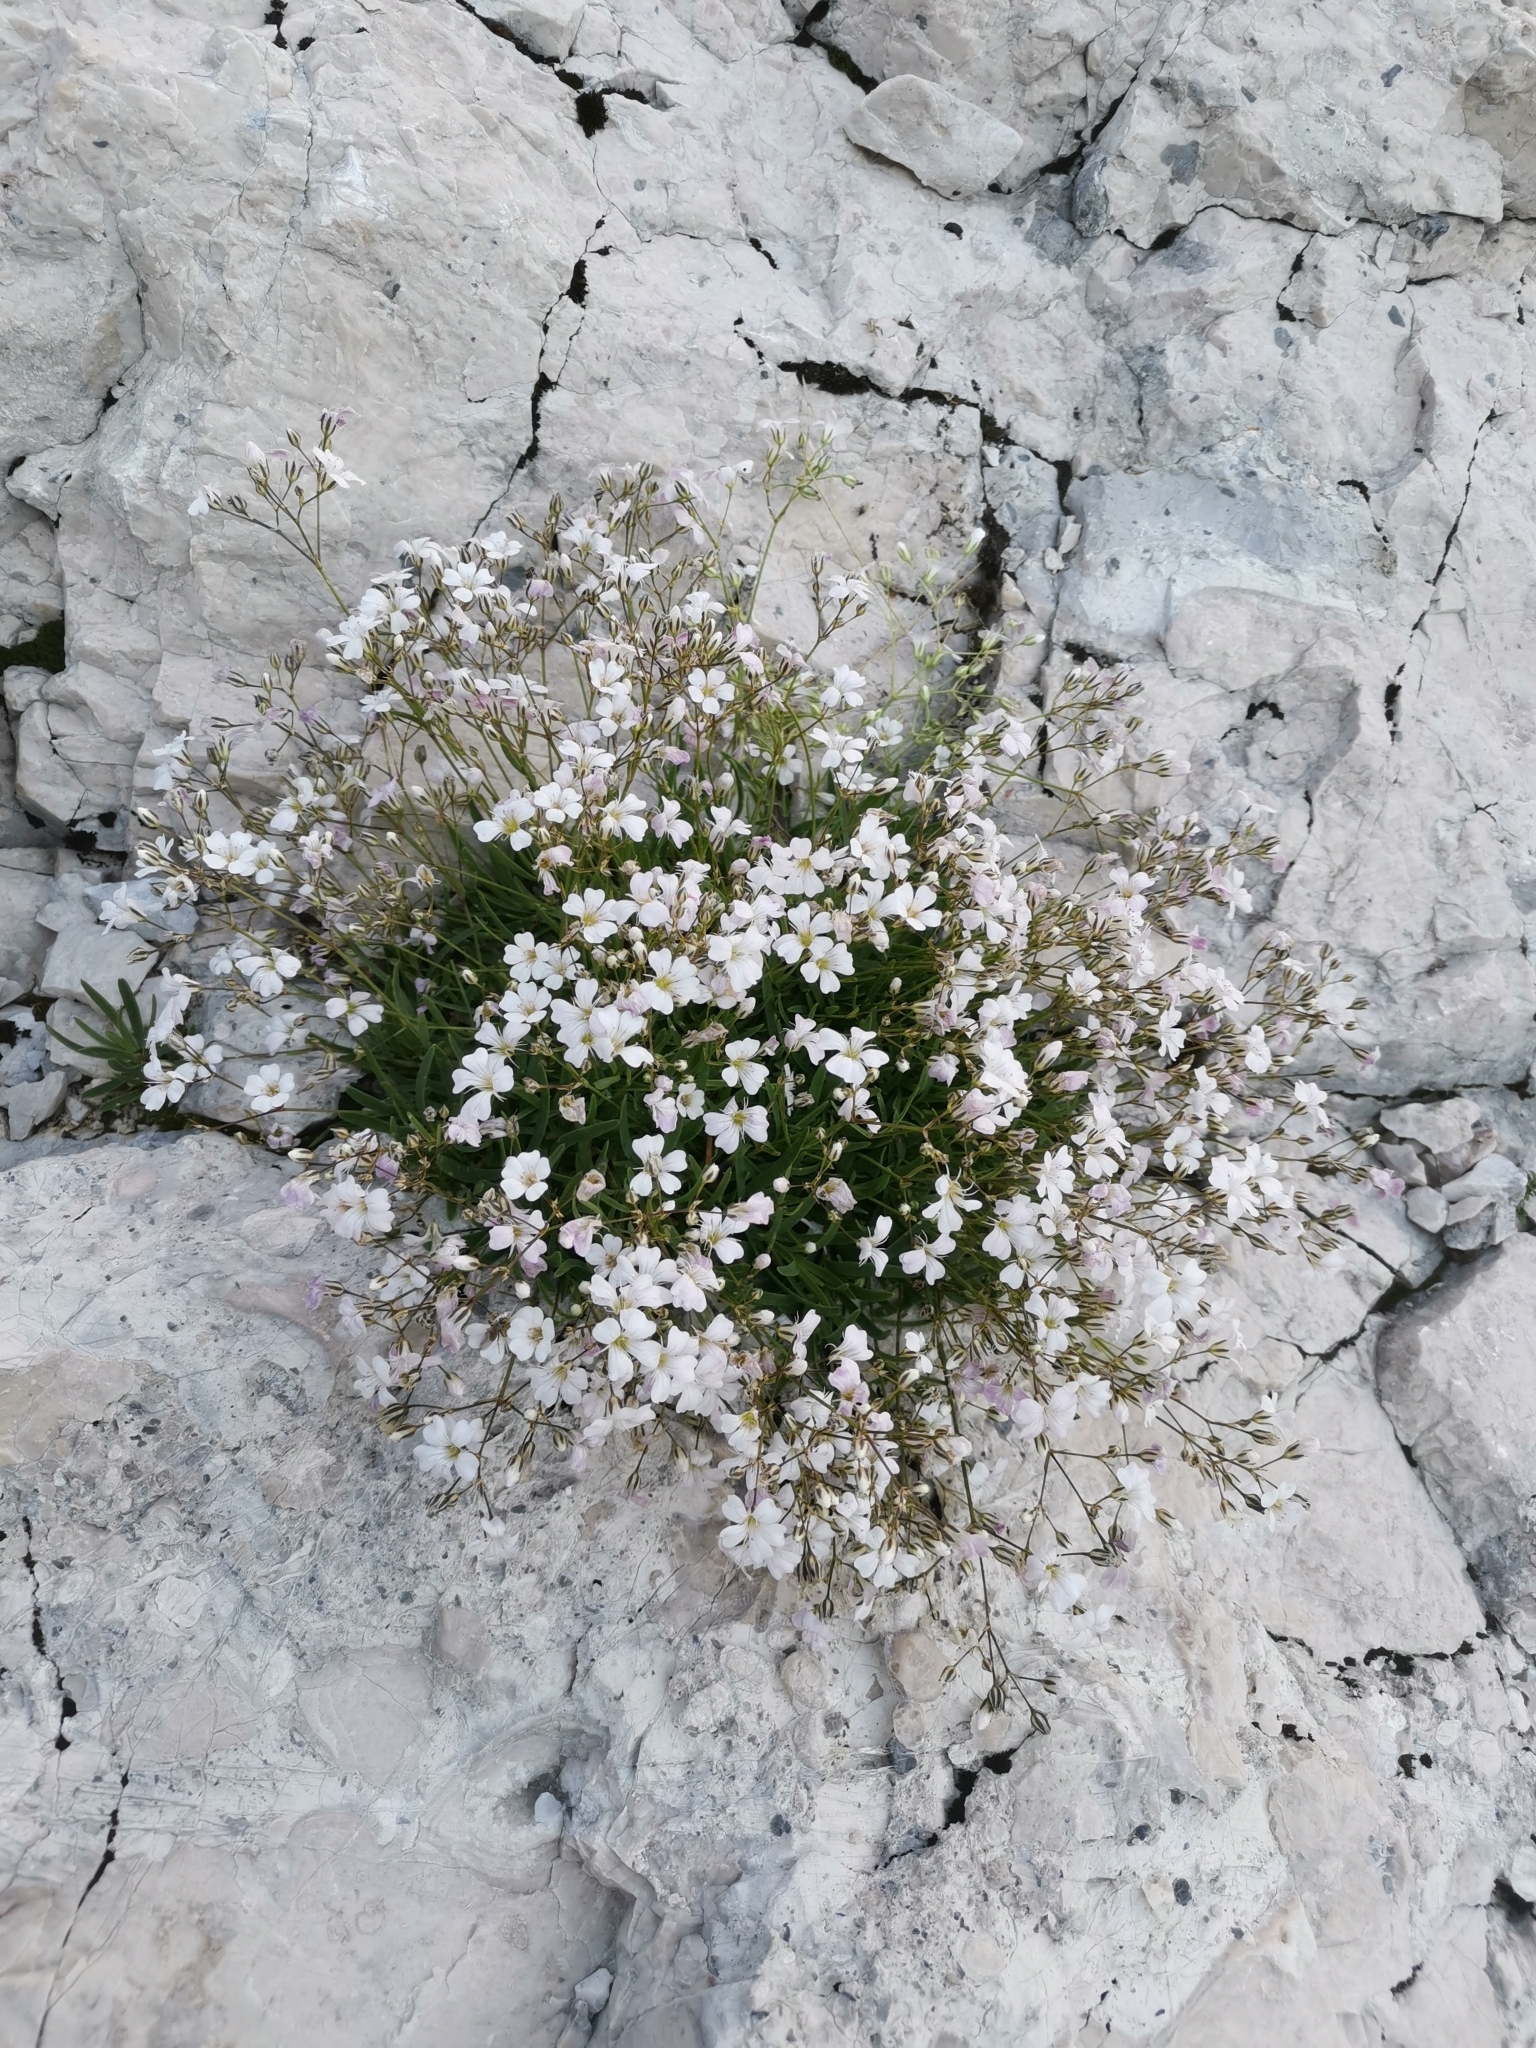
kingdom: Plantae
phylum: Tracheophyta
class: Magnoliopsida
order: Caryophyllales
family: Caryophyllaceae
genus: Gypsophila
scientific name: Gypsophila repens
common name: Creeping baby's-breath
